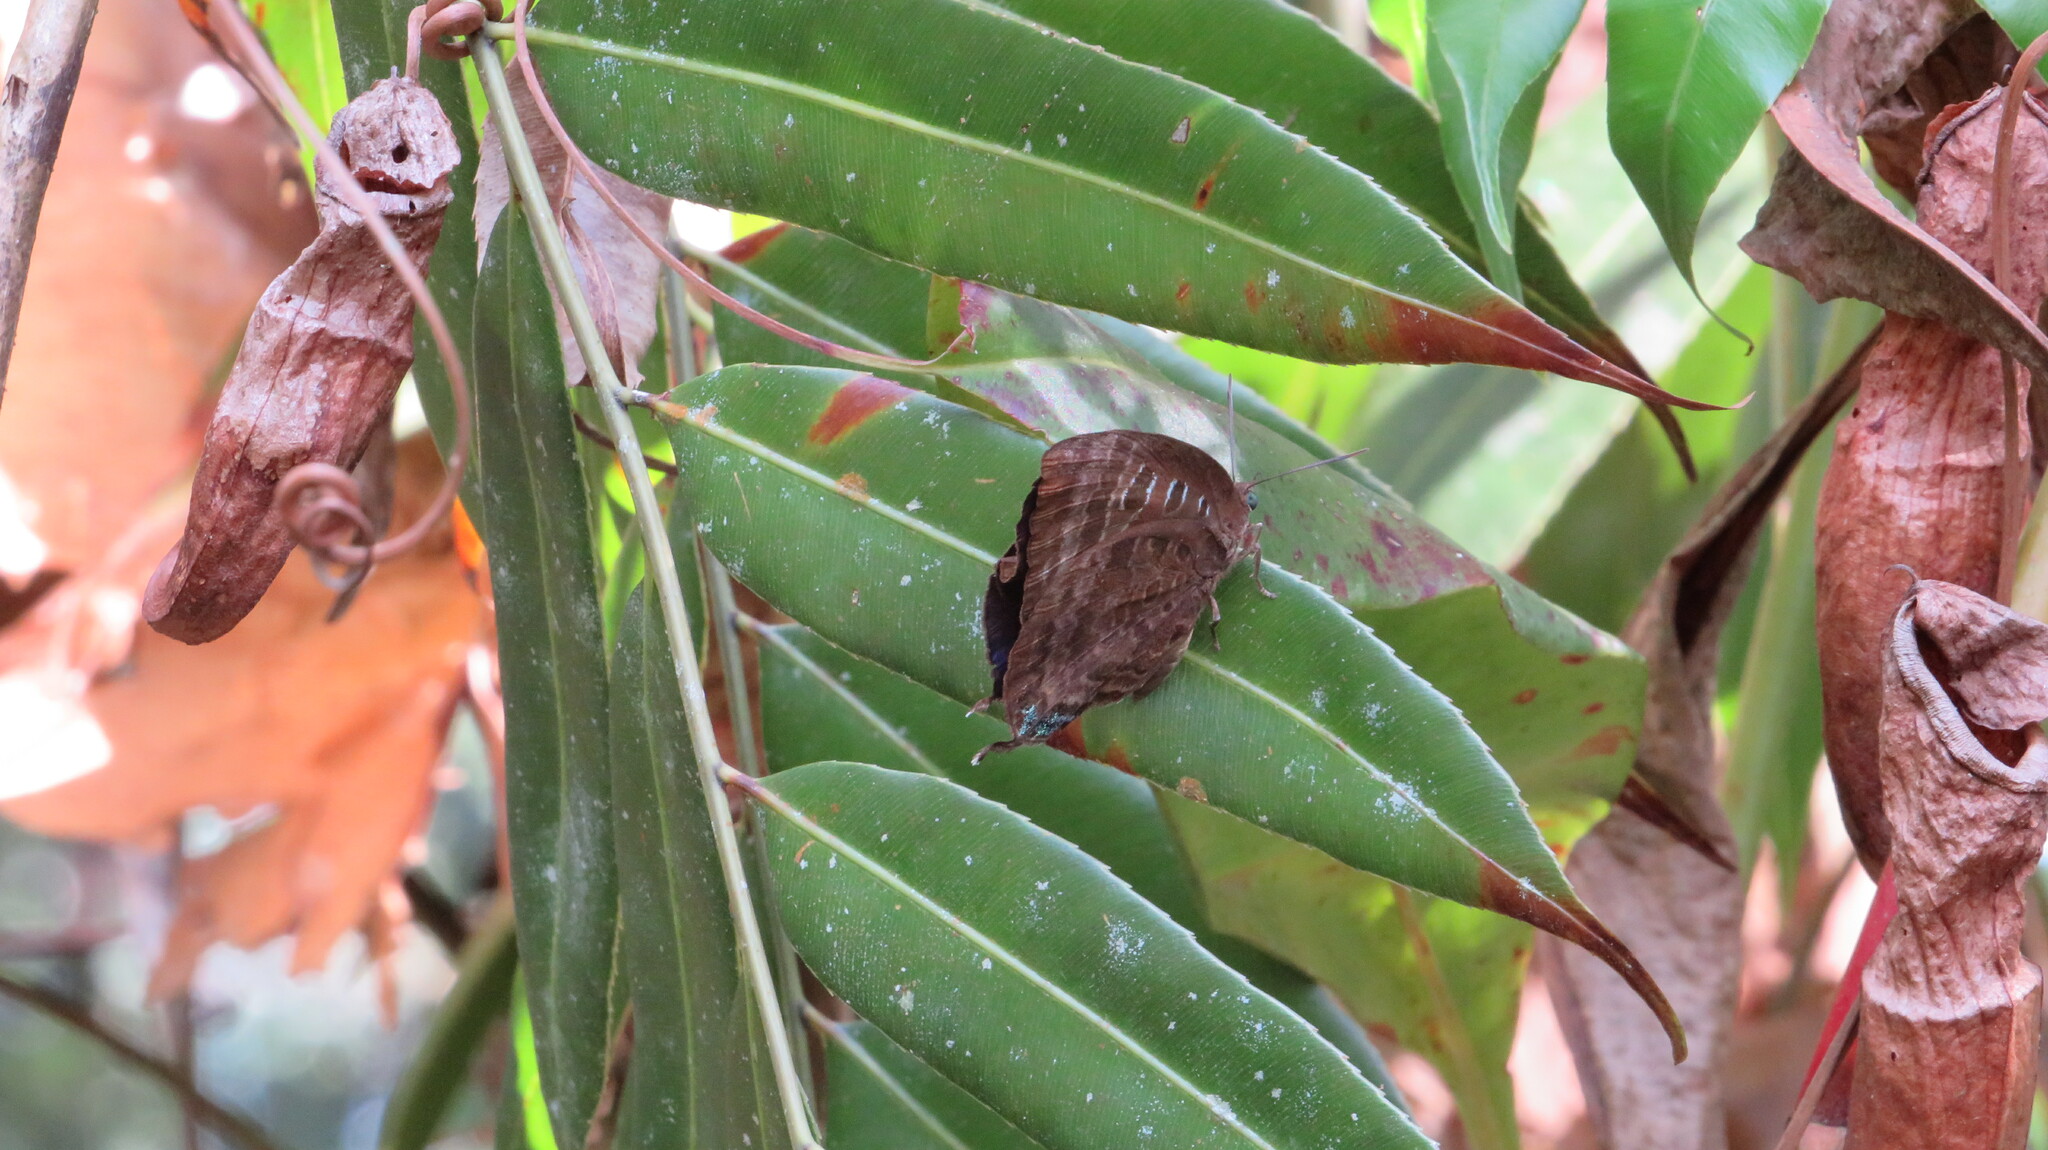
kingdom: Animalia
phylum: Arthropoda
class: Insecta
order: Lepidoptera
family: Lycaenidae
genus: Arhopala
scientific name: Arhopala centaurus
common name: Dull oak-blue
